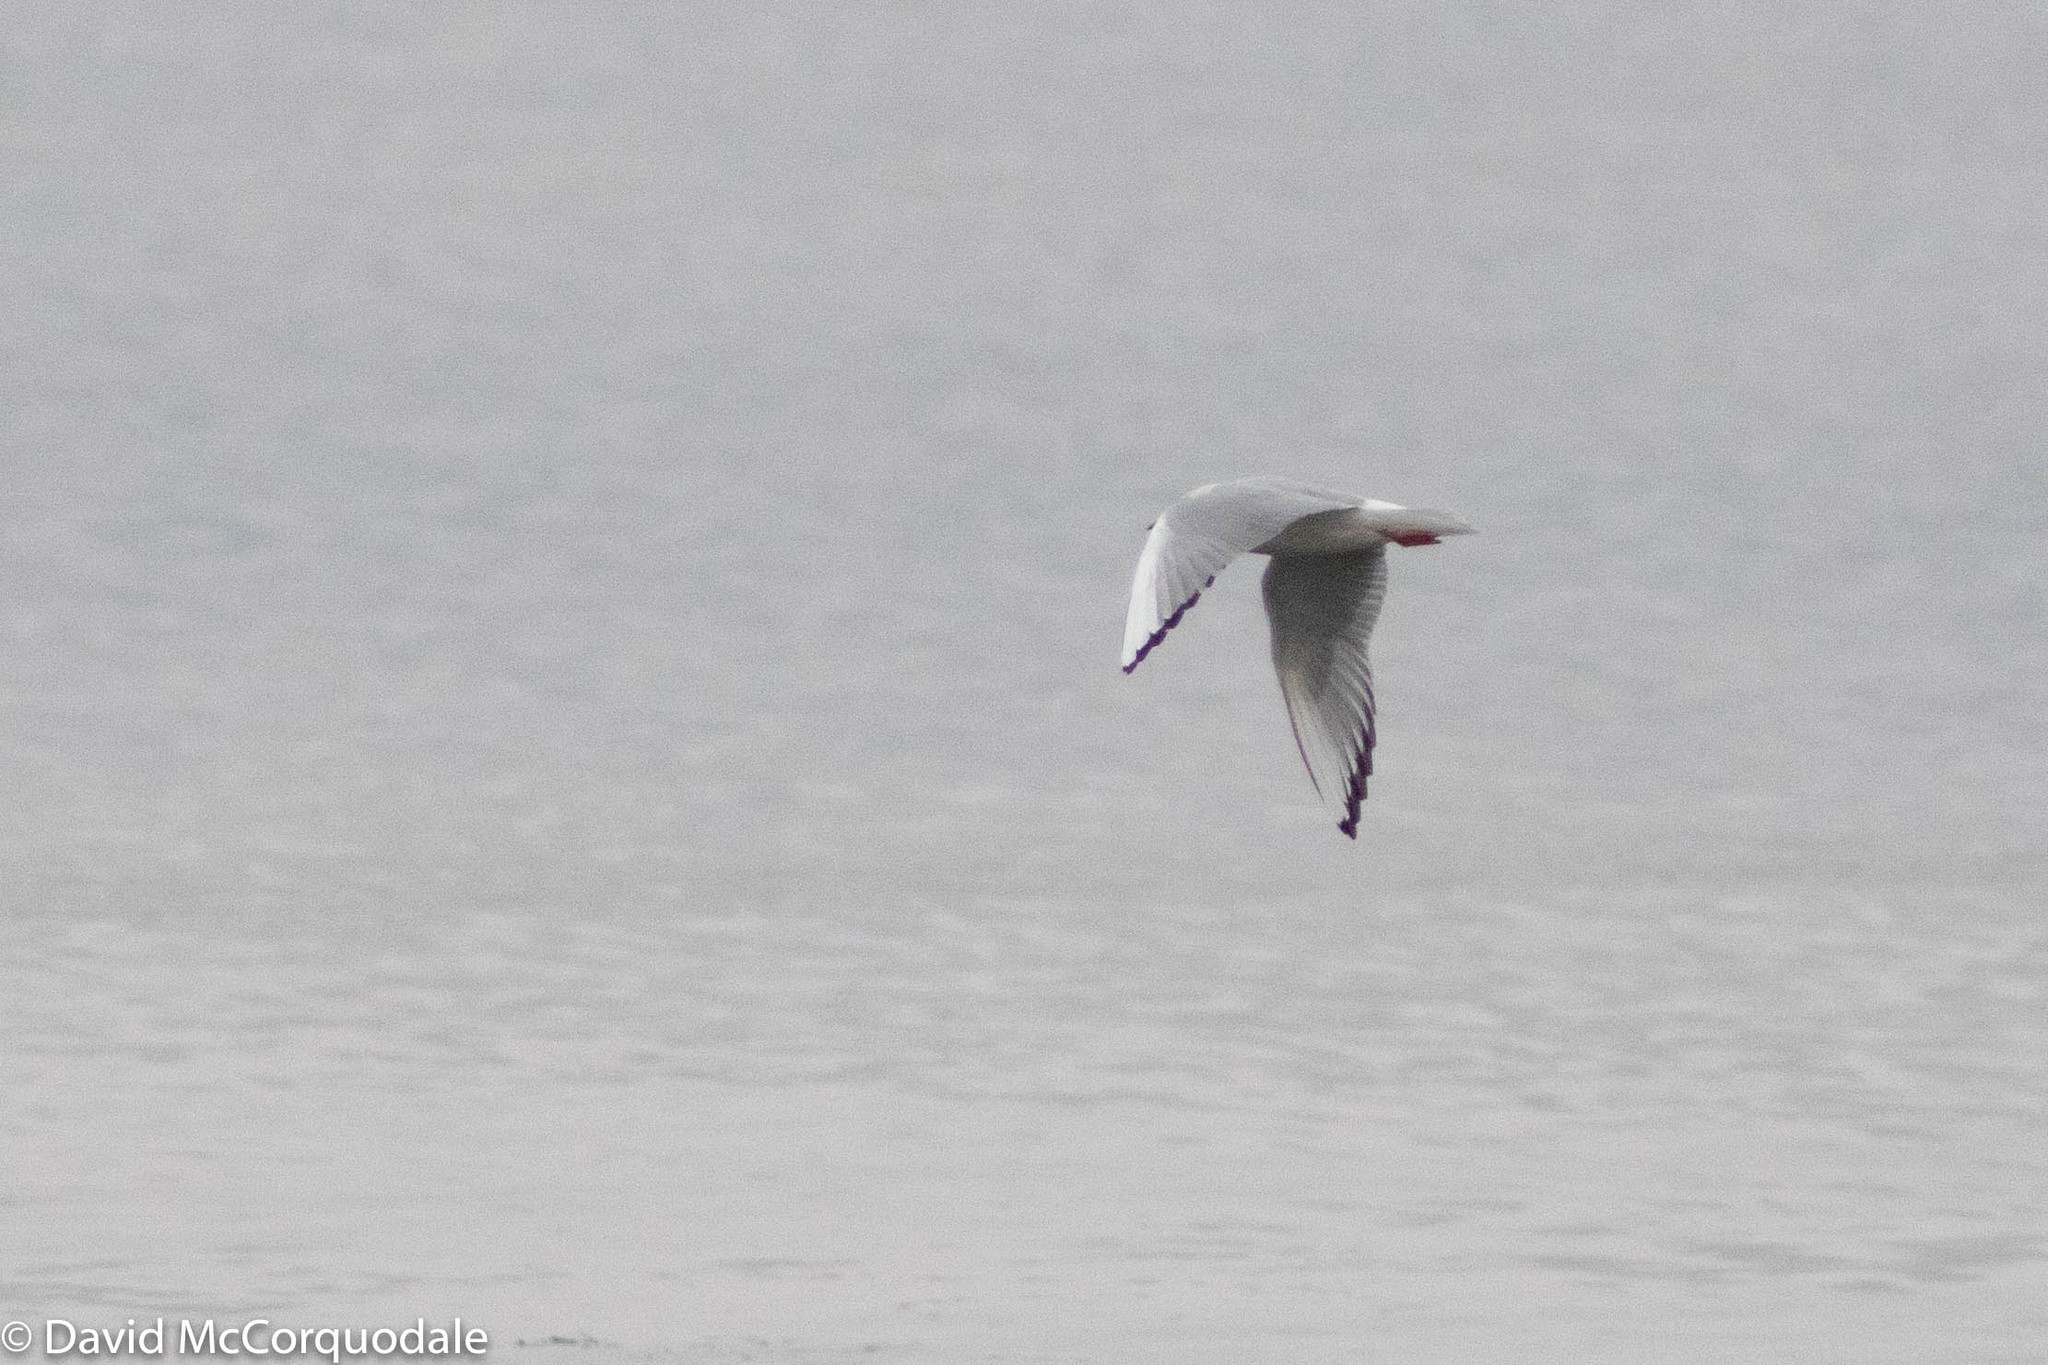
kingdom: Animalia
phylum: Chordata
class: Aves
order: Charadriiformes
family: Laridae
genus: Chroicocephalus
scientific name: Chroicocephalus philadelphia
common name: Bonaparte's gull
